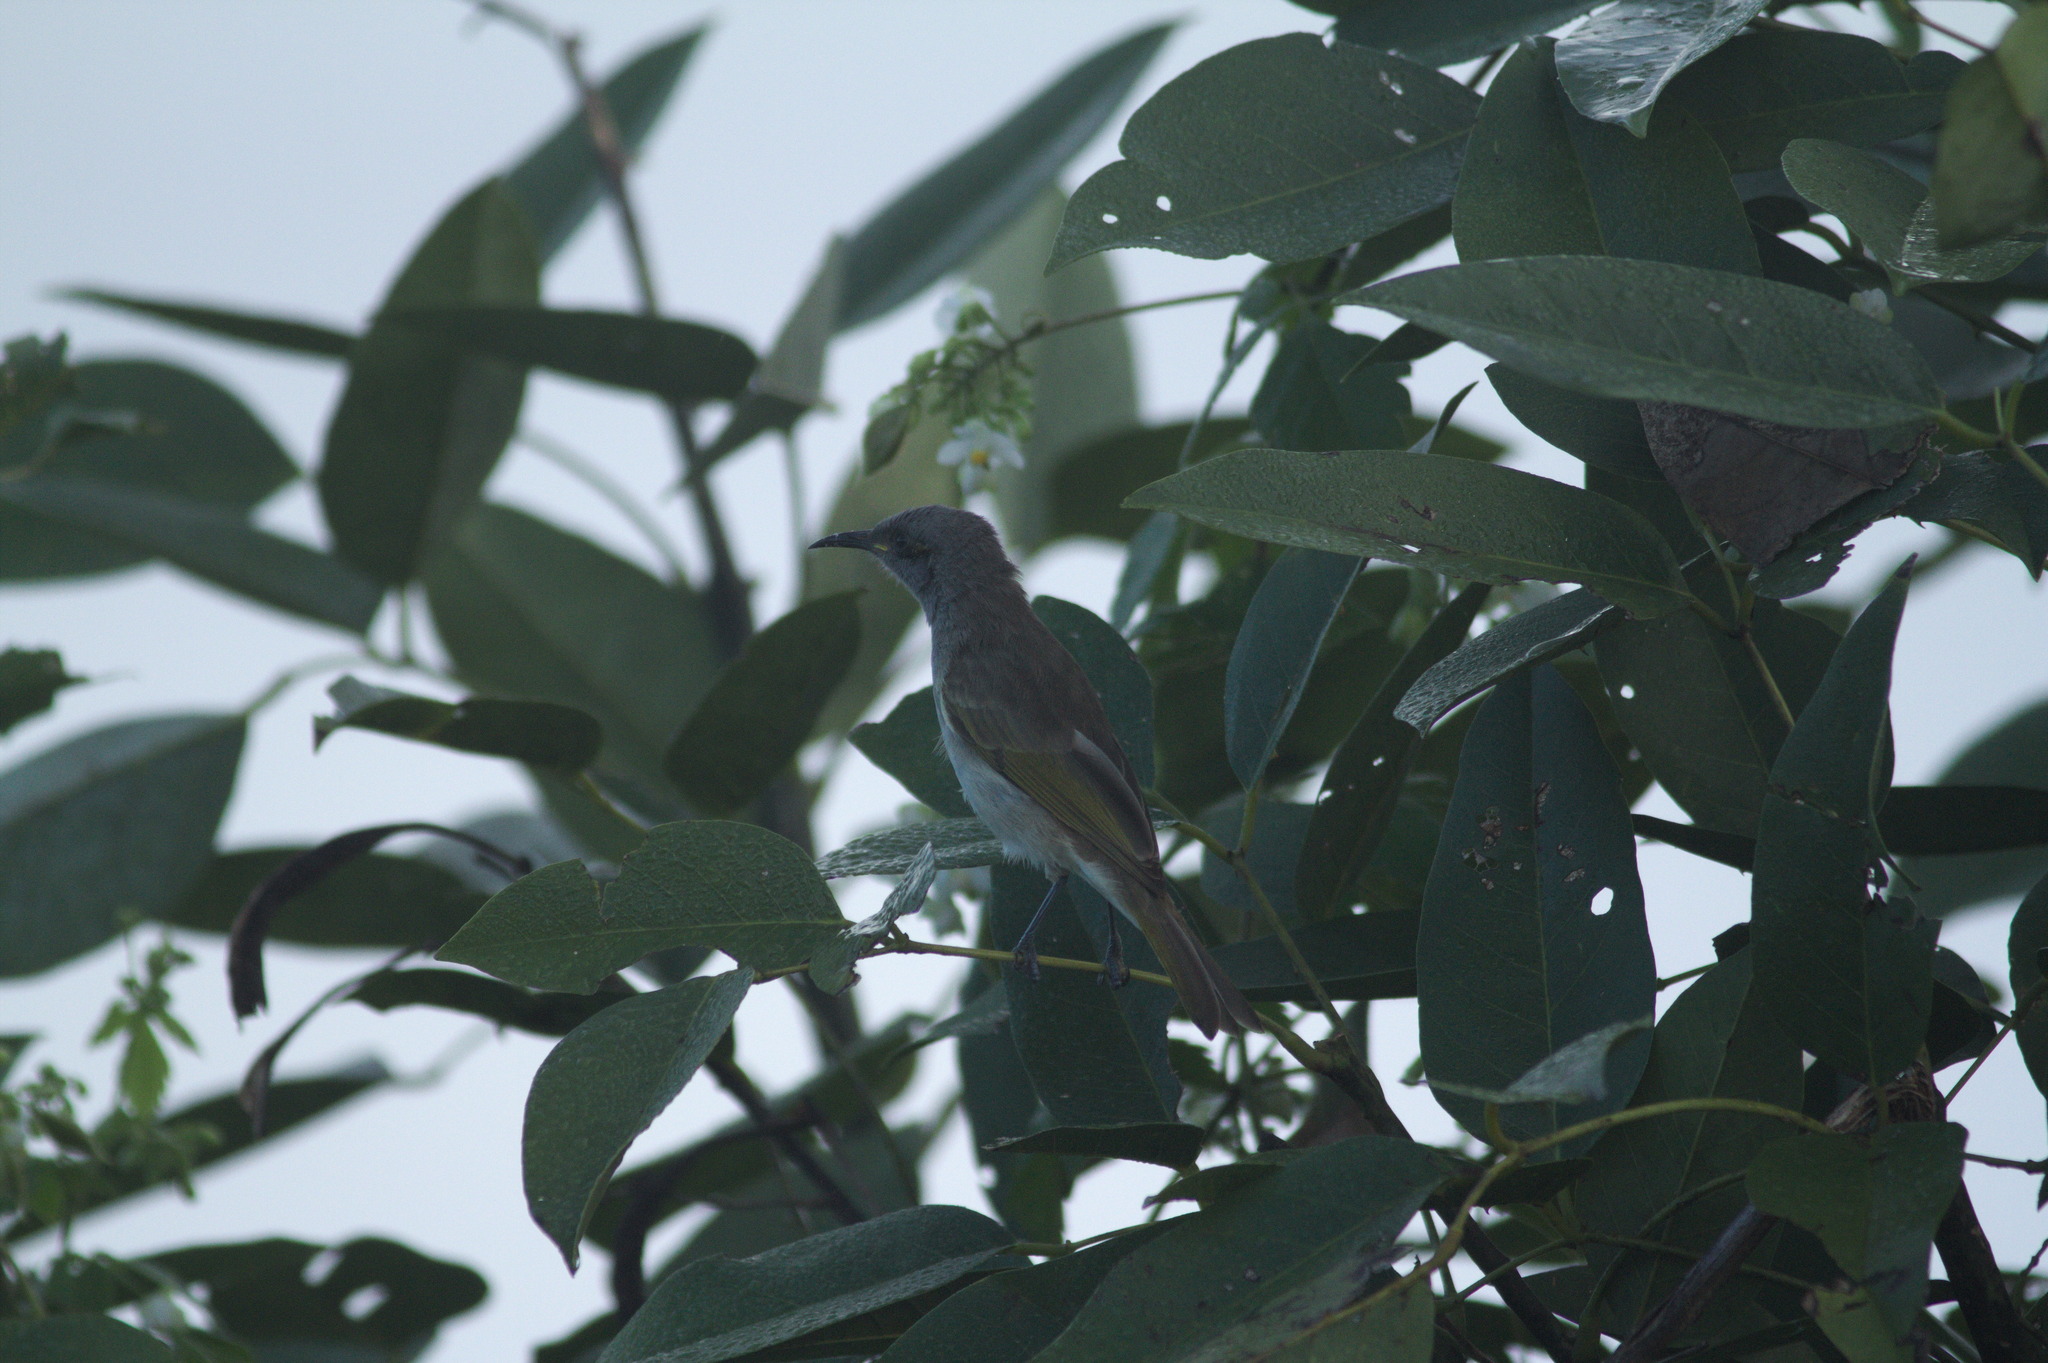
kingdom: Animalia
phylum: Chordata
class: Aves
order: Passeriformes
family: Meliphagidae
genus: Lichmera
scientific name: Lichmera indistincta
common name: Brown honeyeater
